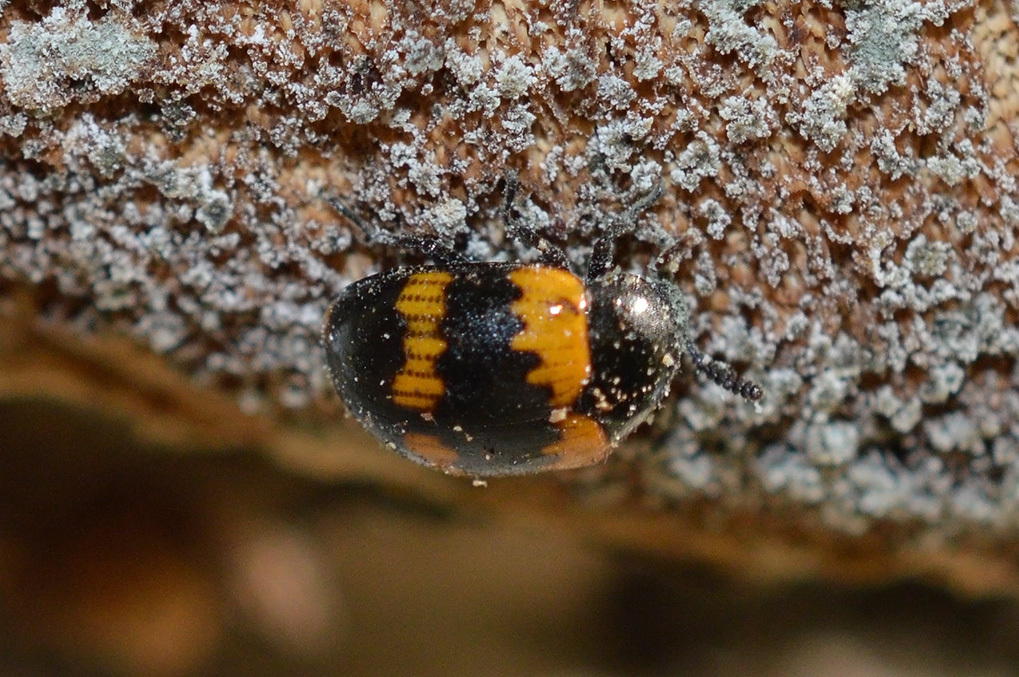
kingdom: Animalia
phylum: Arthropoda
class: Insecta
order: Coleoptera
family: Tenebrionidae
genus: Diaperis
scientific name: Diaperis boleti
